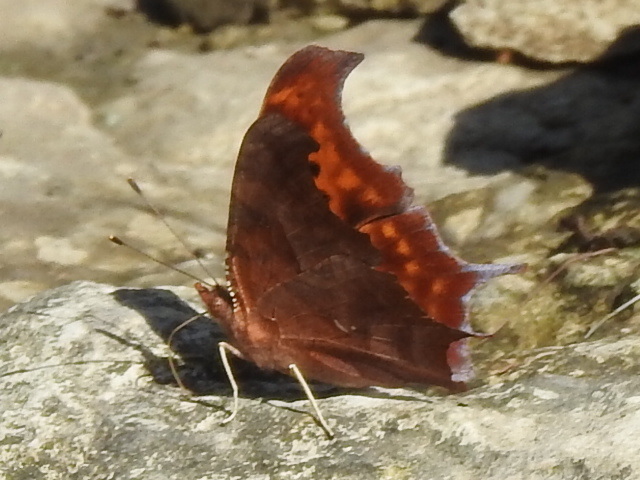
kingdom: Animalia
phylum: Arthropoda
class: Insecta
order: Lepidoptera
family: Nymphalidae
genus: Polygonia
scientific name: Polygonia interrogationis
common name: Question mark
